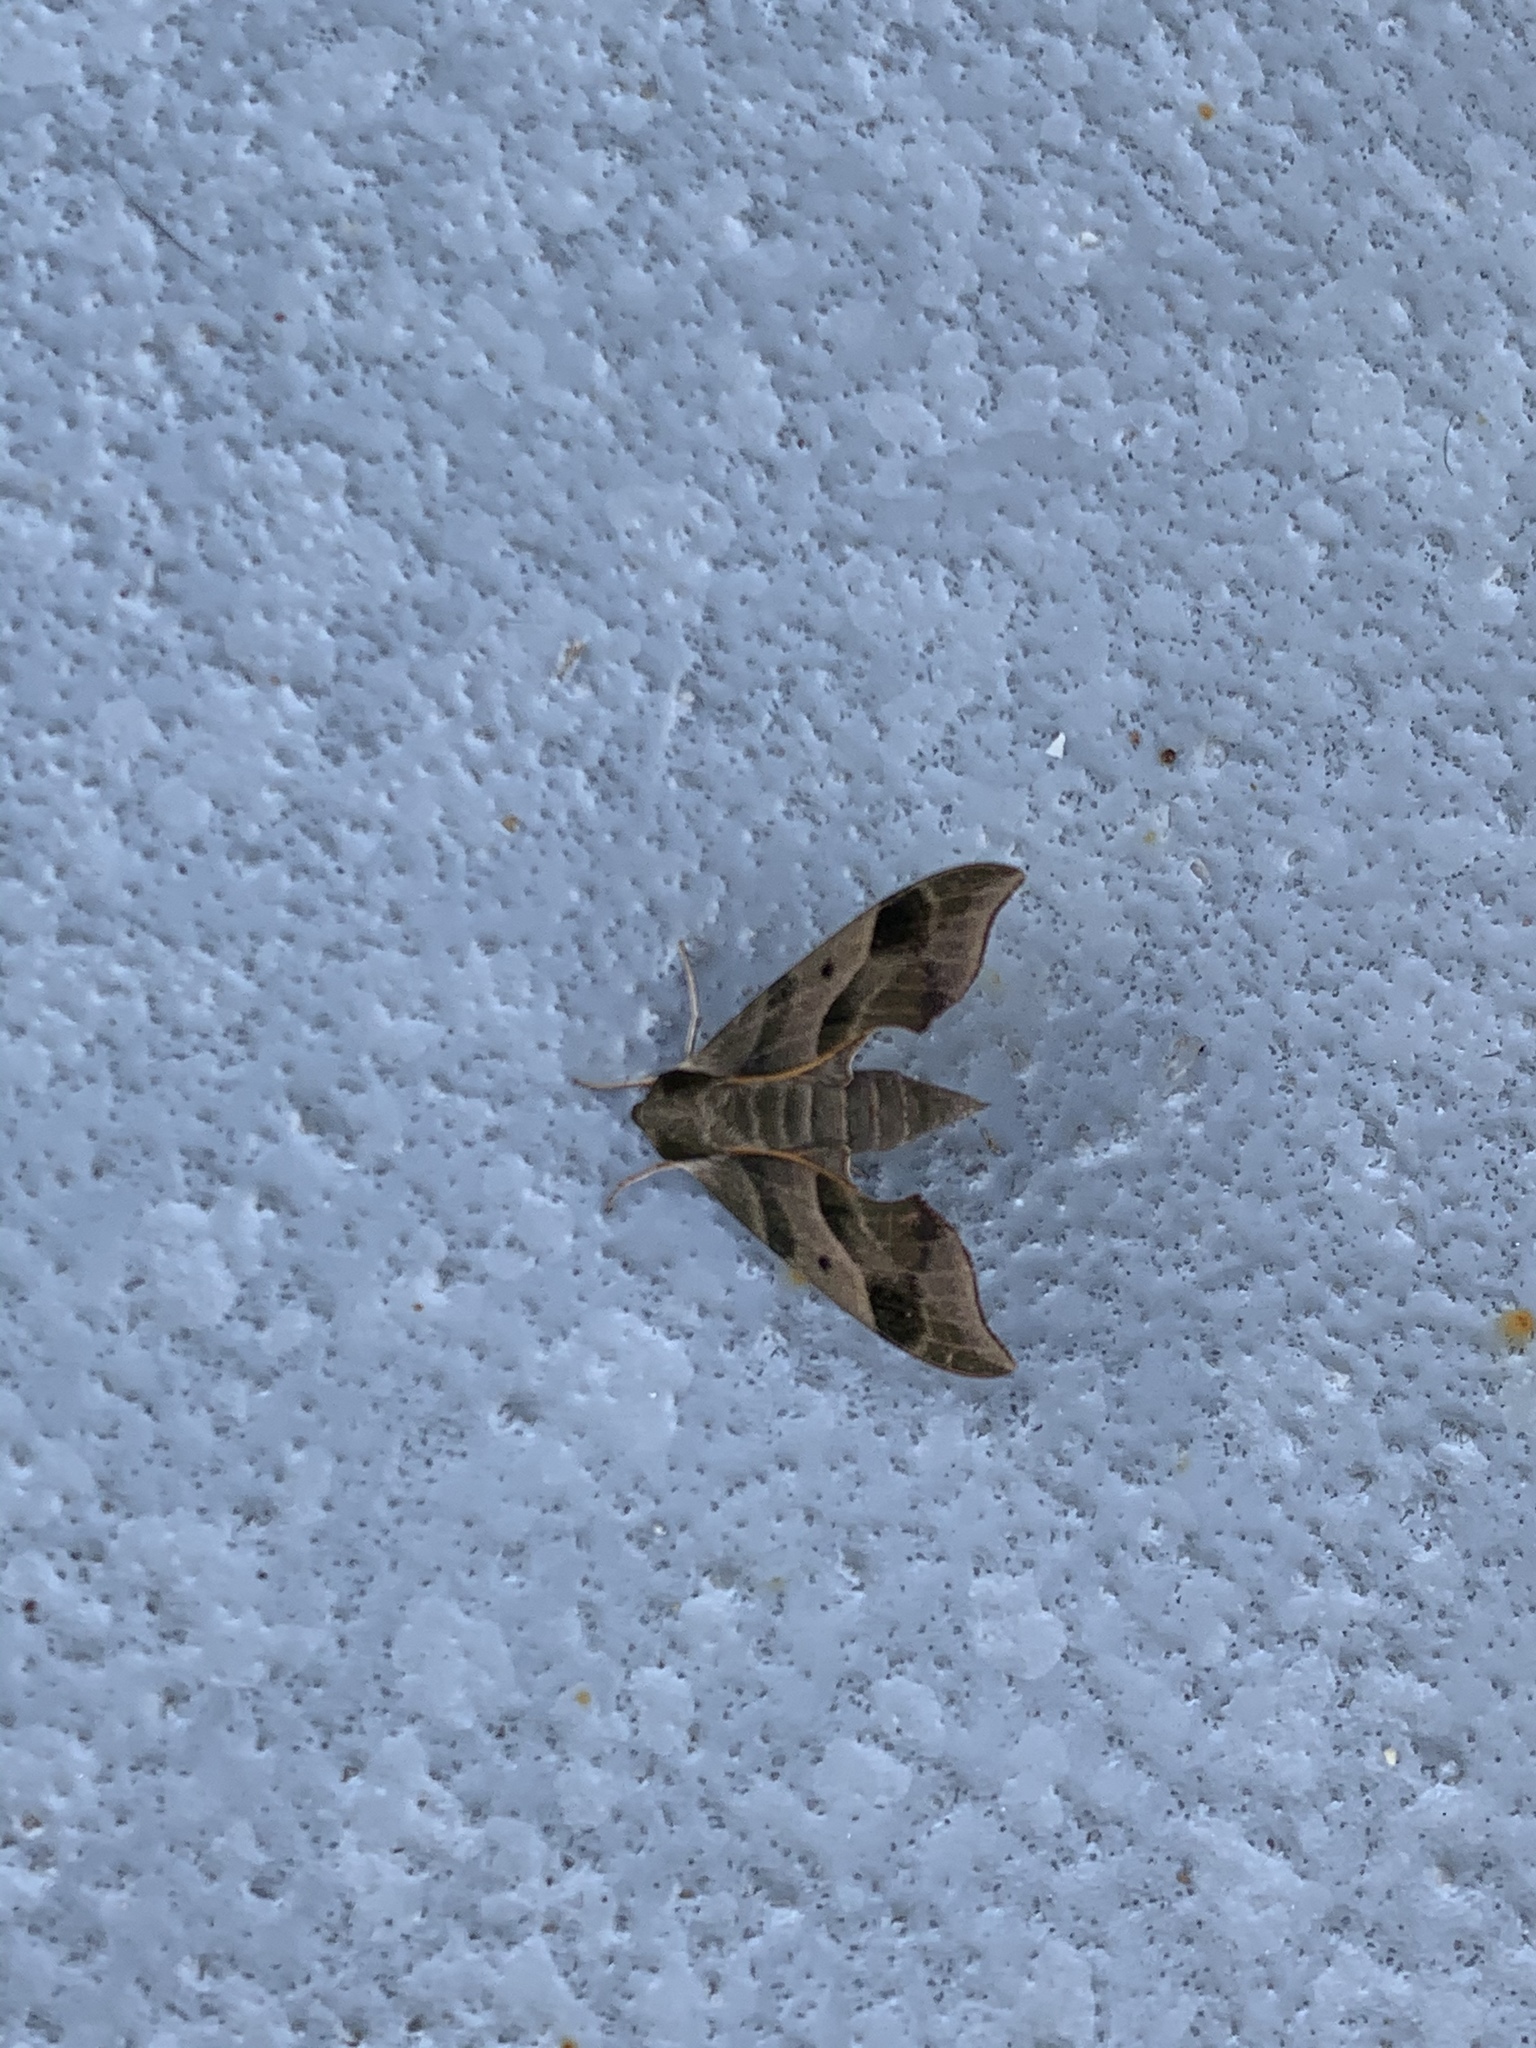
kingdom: Animalia
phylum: Arthropoda
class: Insecta
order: Lepidoptera
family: Sphingidae
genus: Darapsa
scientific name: Darapsa myron
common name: Hog sphinx
